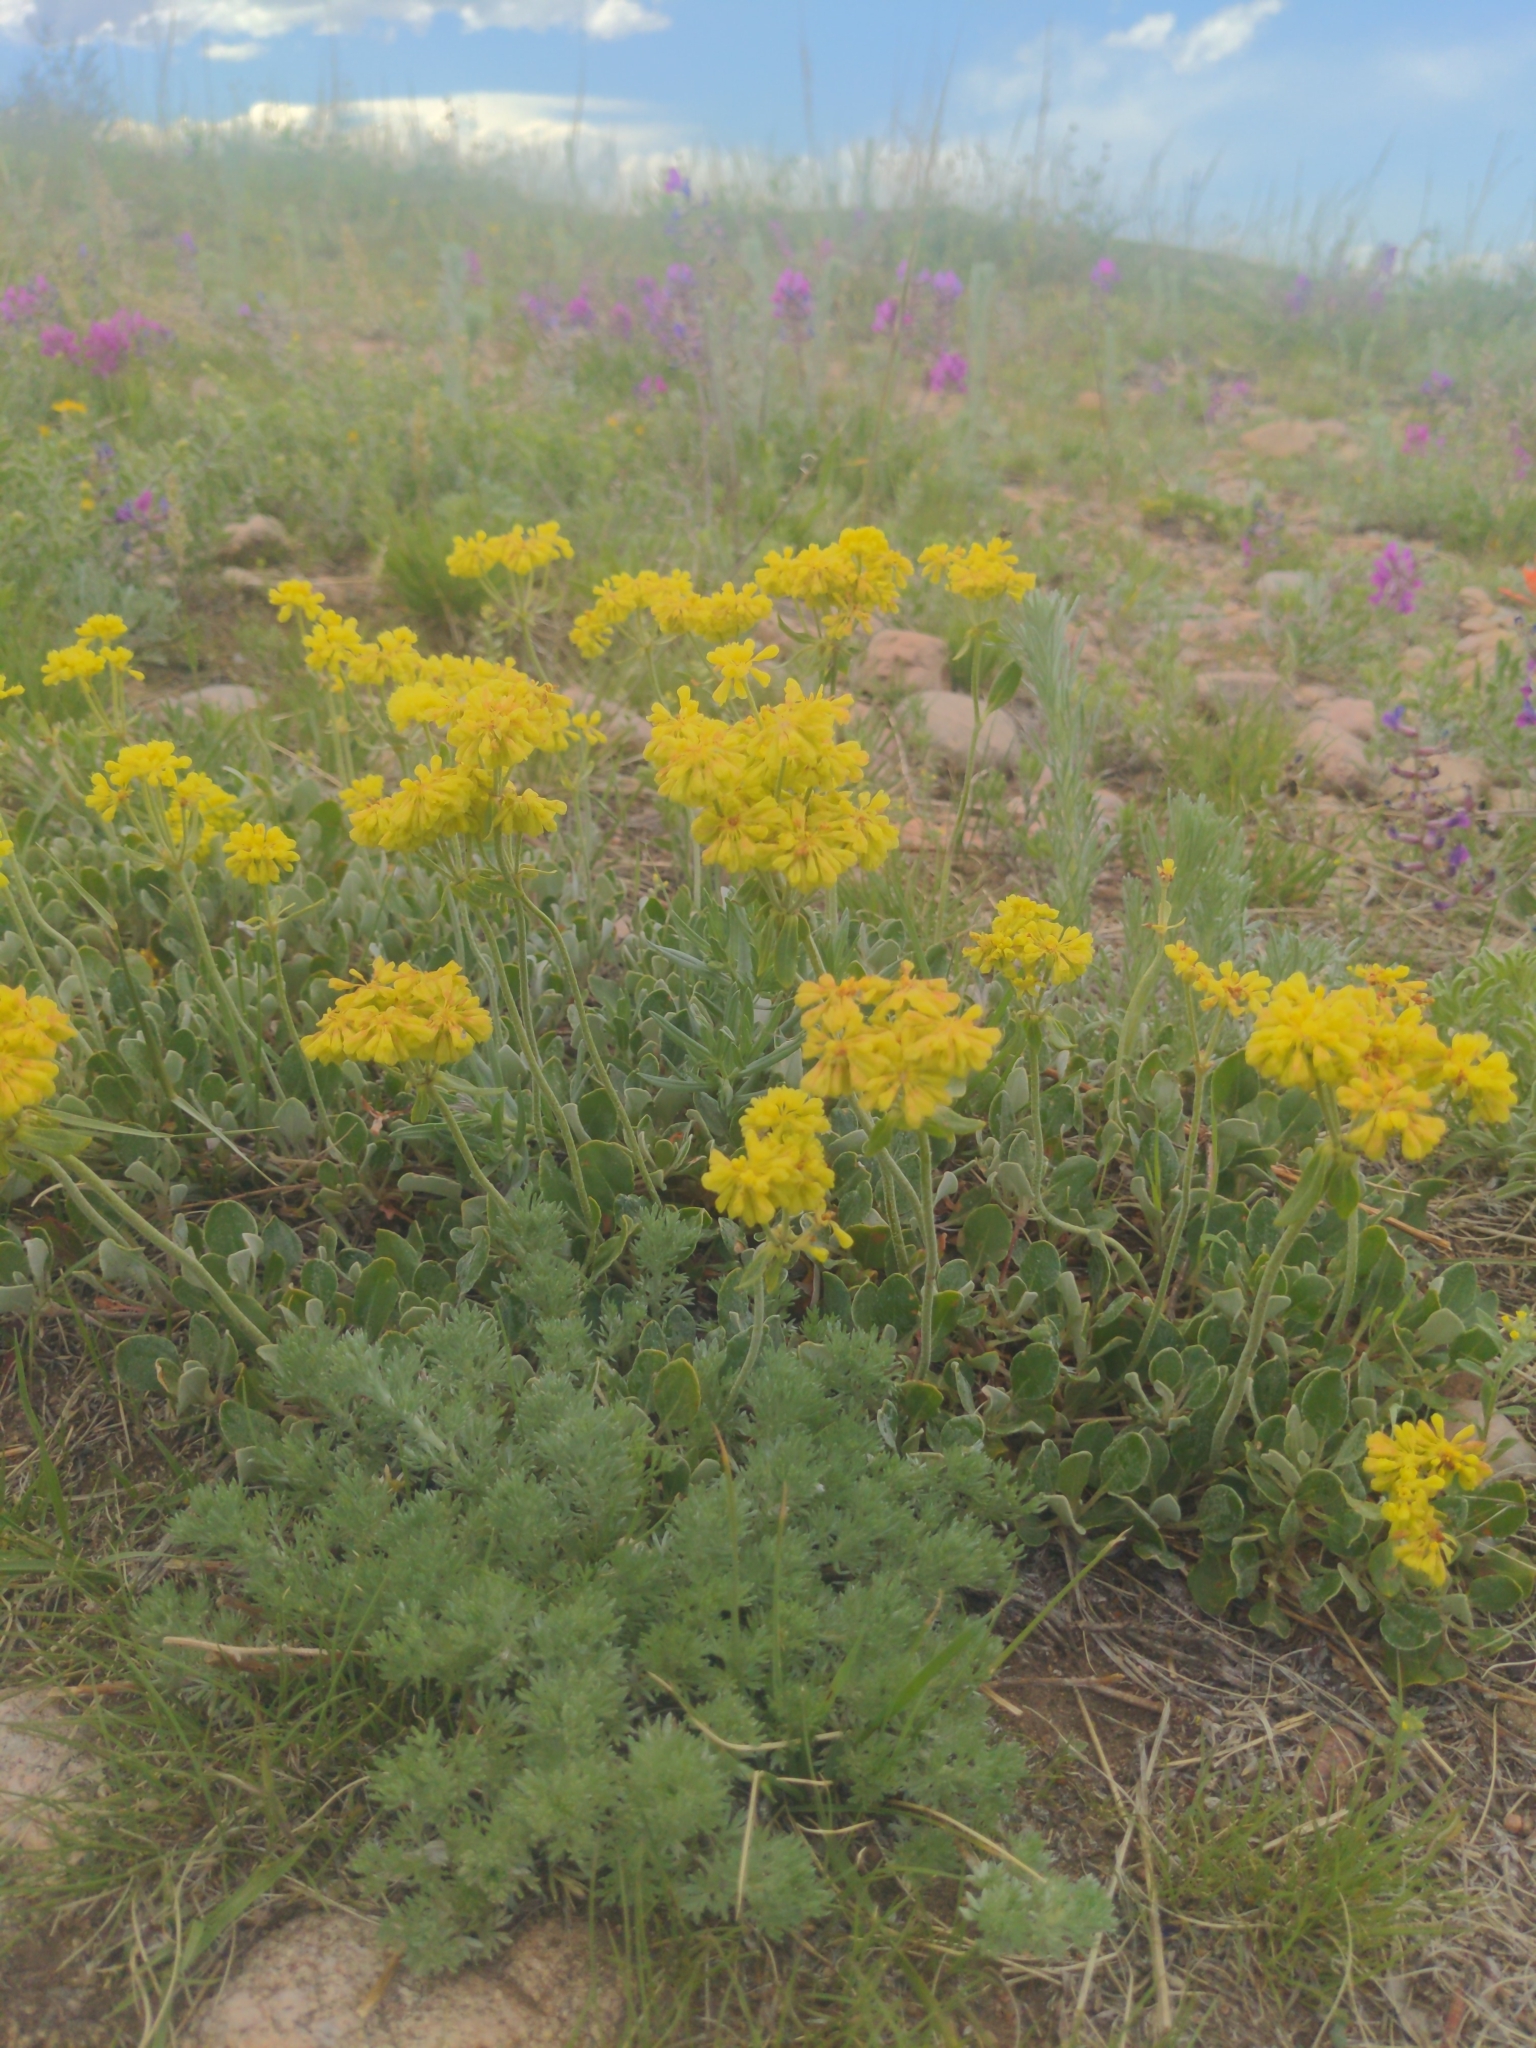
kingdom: Plantae
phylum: Tracheophyta
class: Magnoliopsida
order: Caryophyllales
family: Polygonaceae
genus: Eriogonum
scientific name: Eriogonum umbellatum
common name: Sulfur-buckwheat
